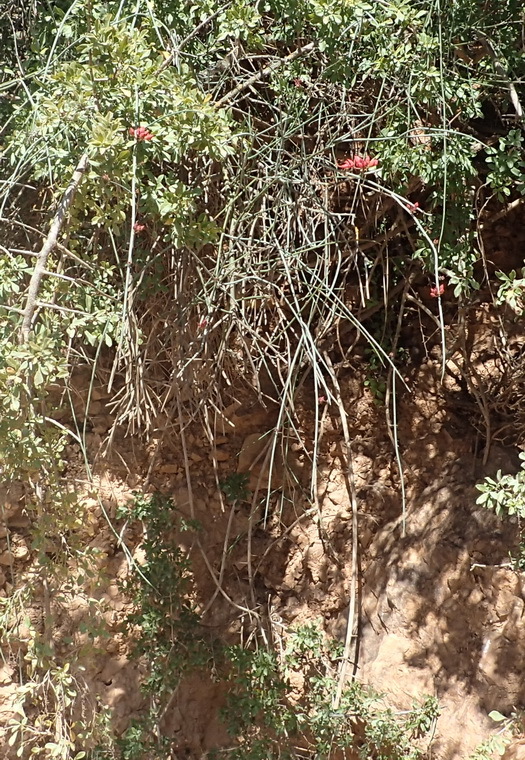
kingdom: Plantae
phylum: Tracheophyta
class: Magnoliopsida
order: Brassicales
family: Capparaceae
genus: Cadaba
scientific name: Cadaba aphylla
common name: Black storm
